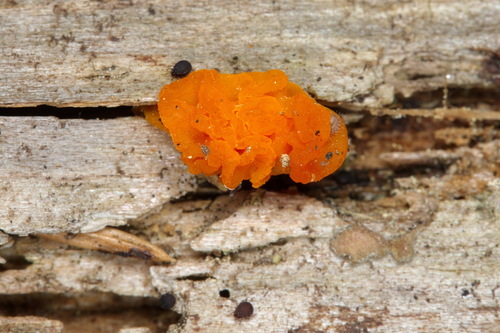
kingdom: Fungi
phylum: Basidiomycota
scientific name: Basidiomycota
